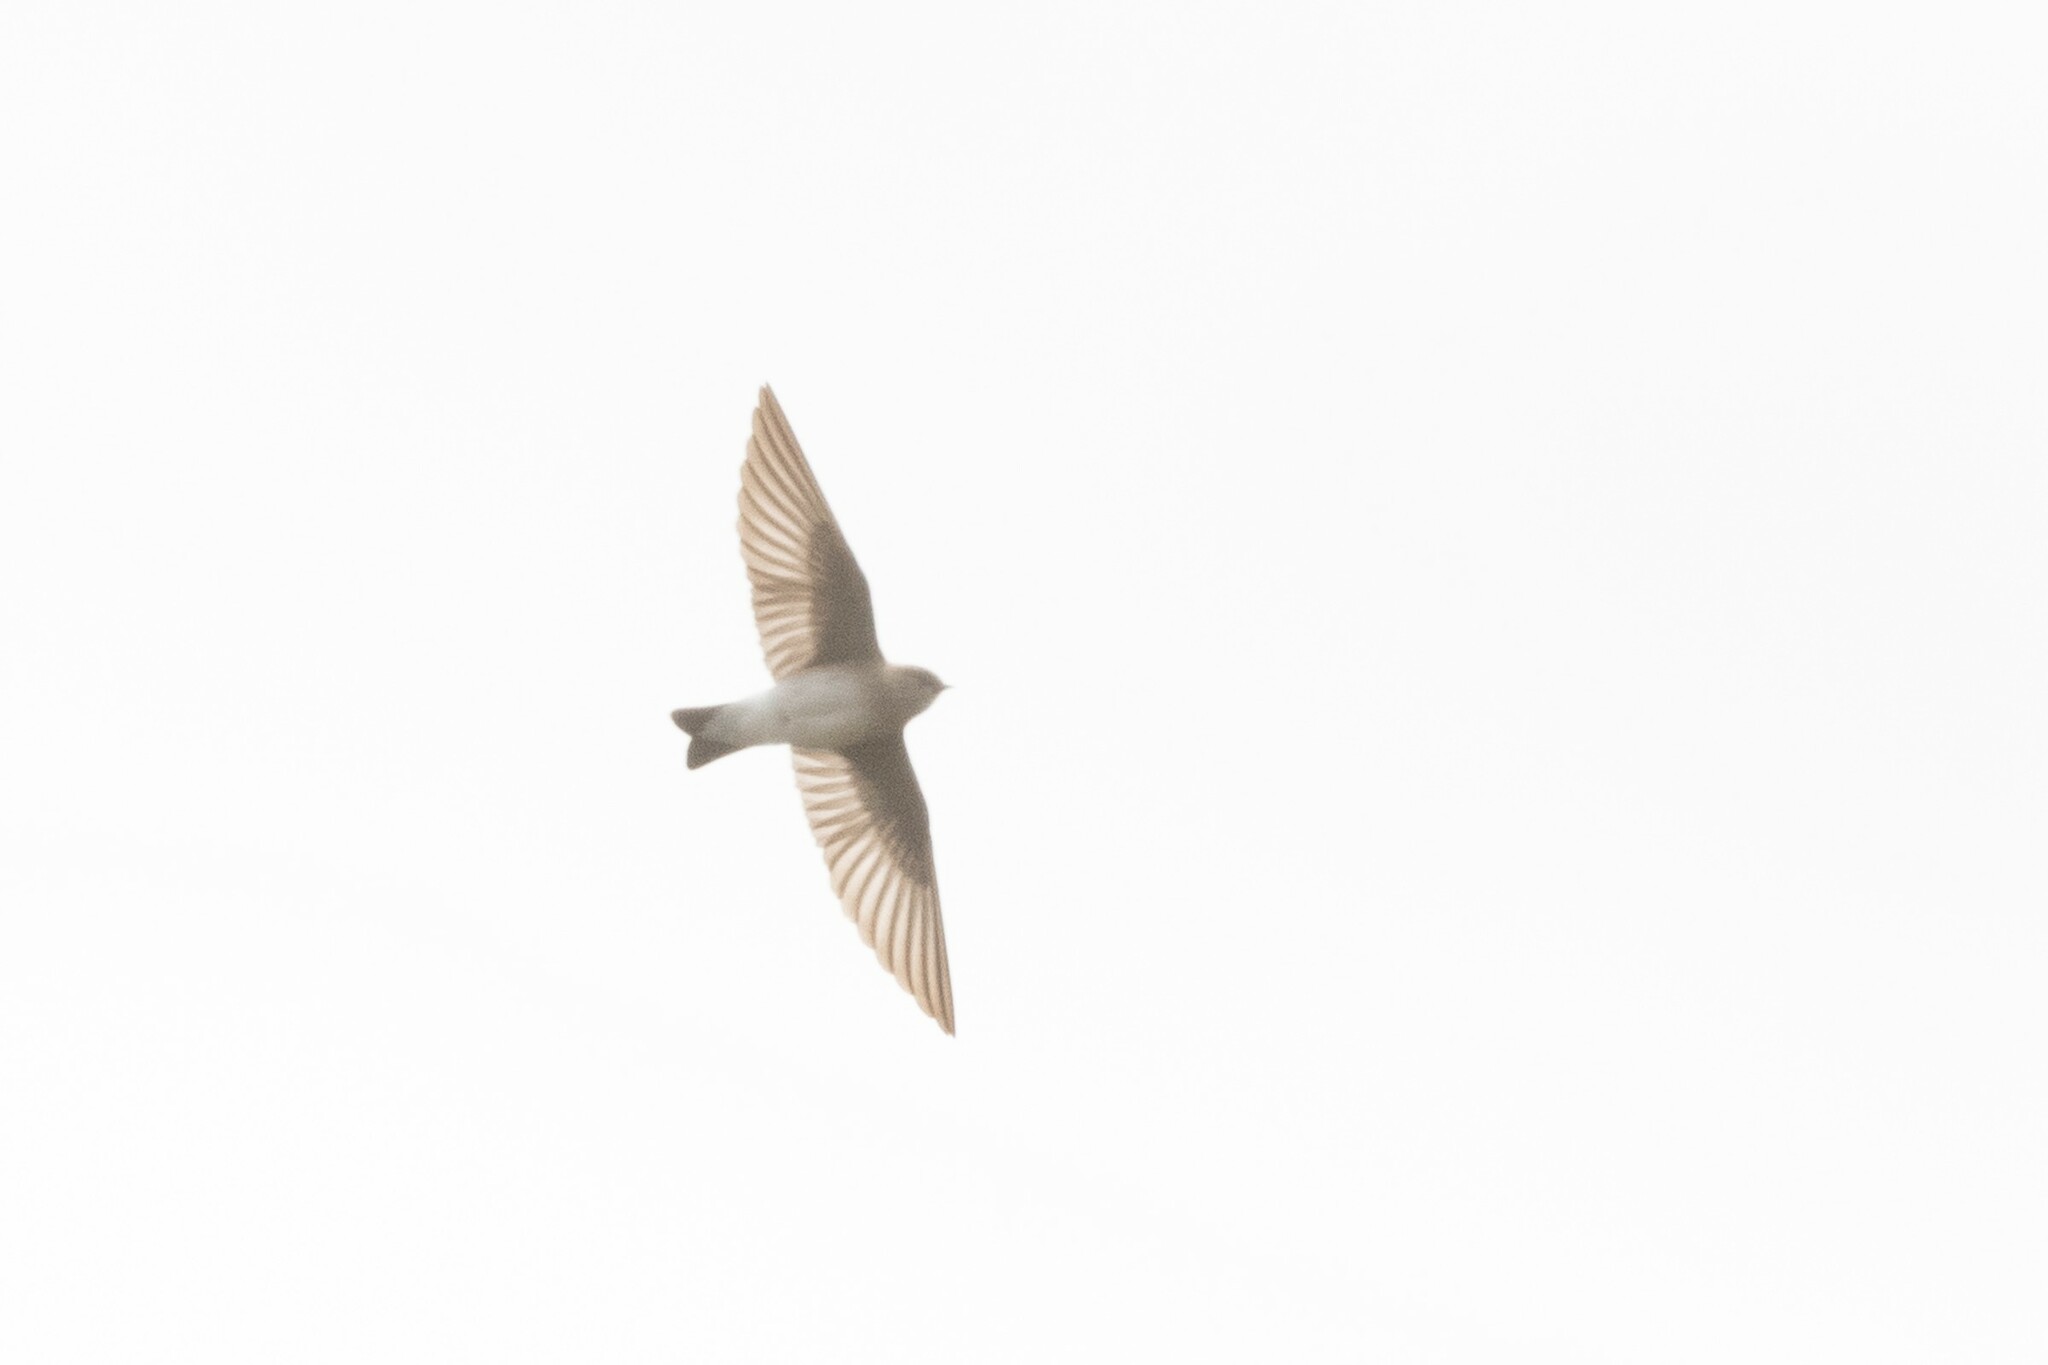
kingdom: Animalia
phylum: Chordata
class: Aves
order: Passeriformes
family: Hirundinidae
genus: Stelgidopteryx
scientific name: Stelgidopteryx serripennis
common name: Northern rough-winged swallow
